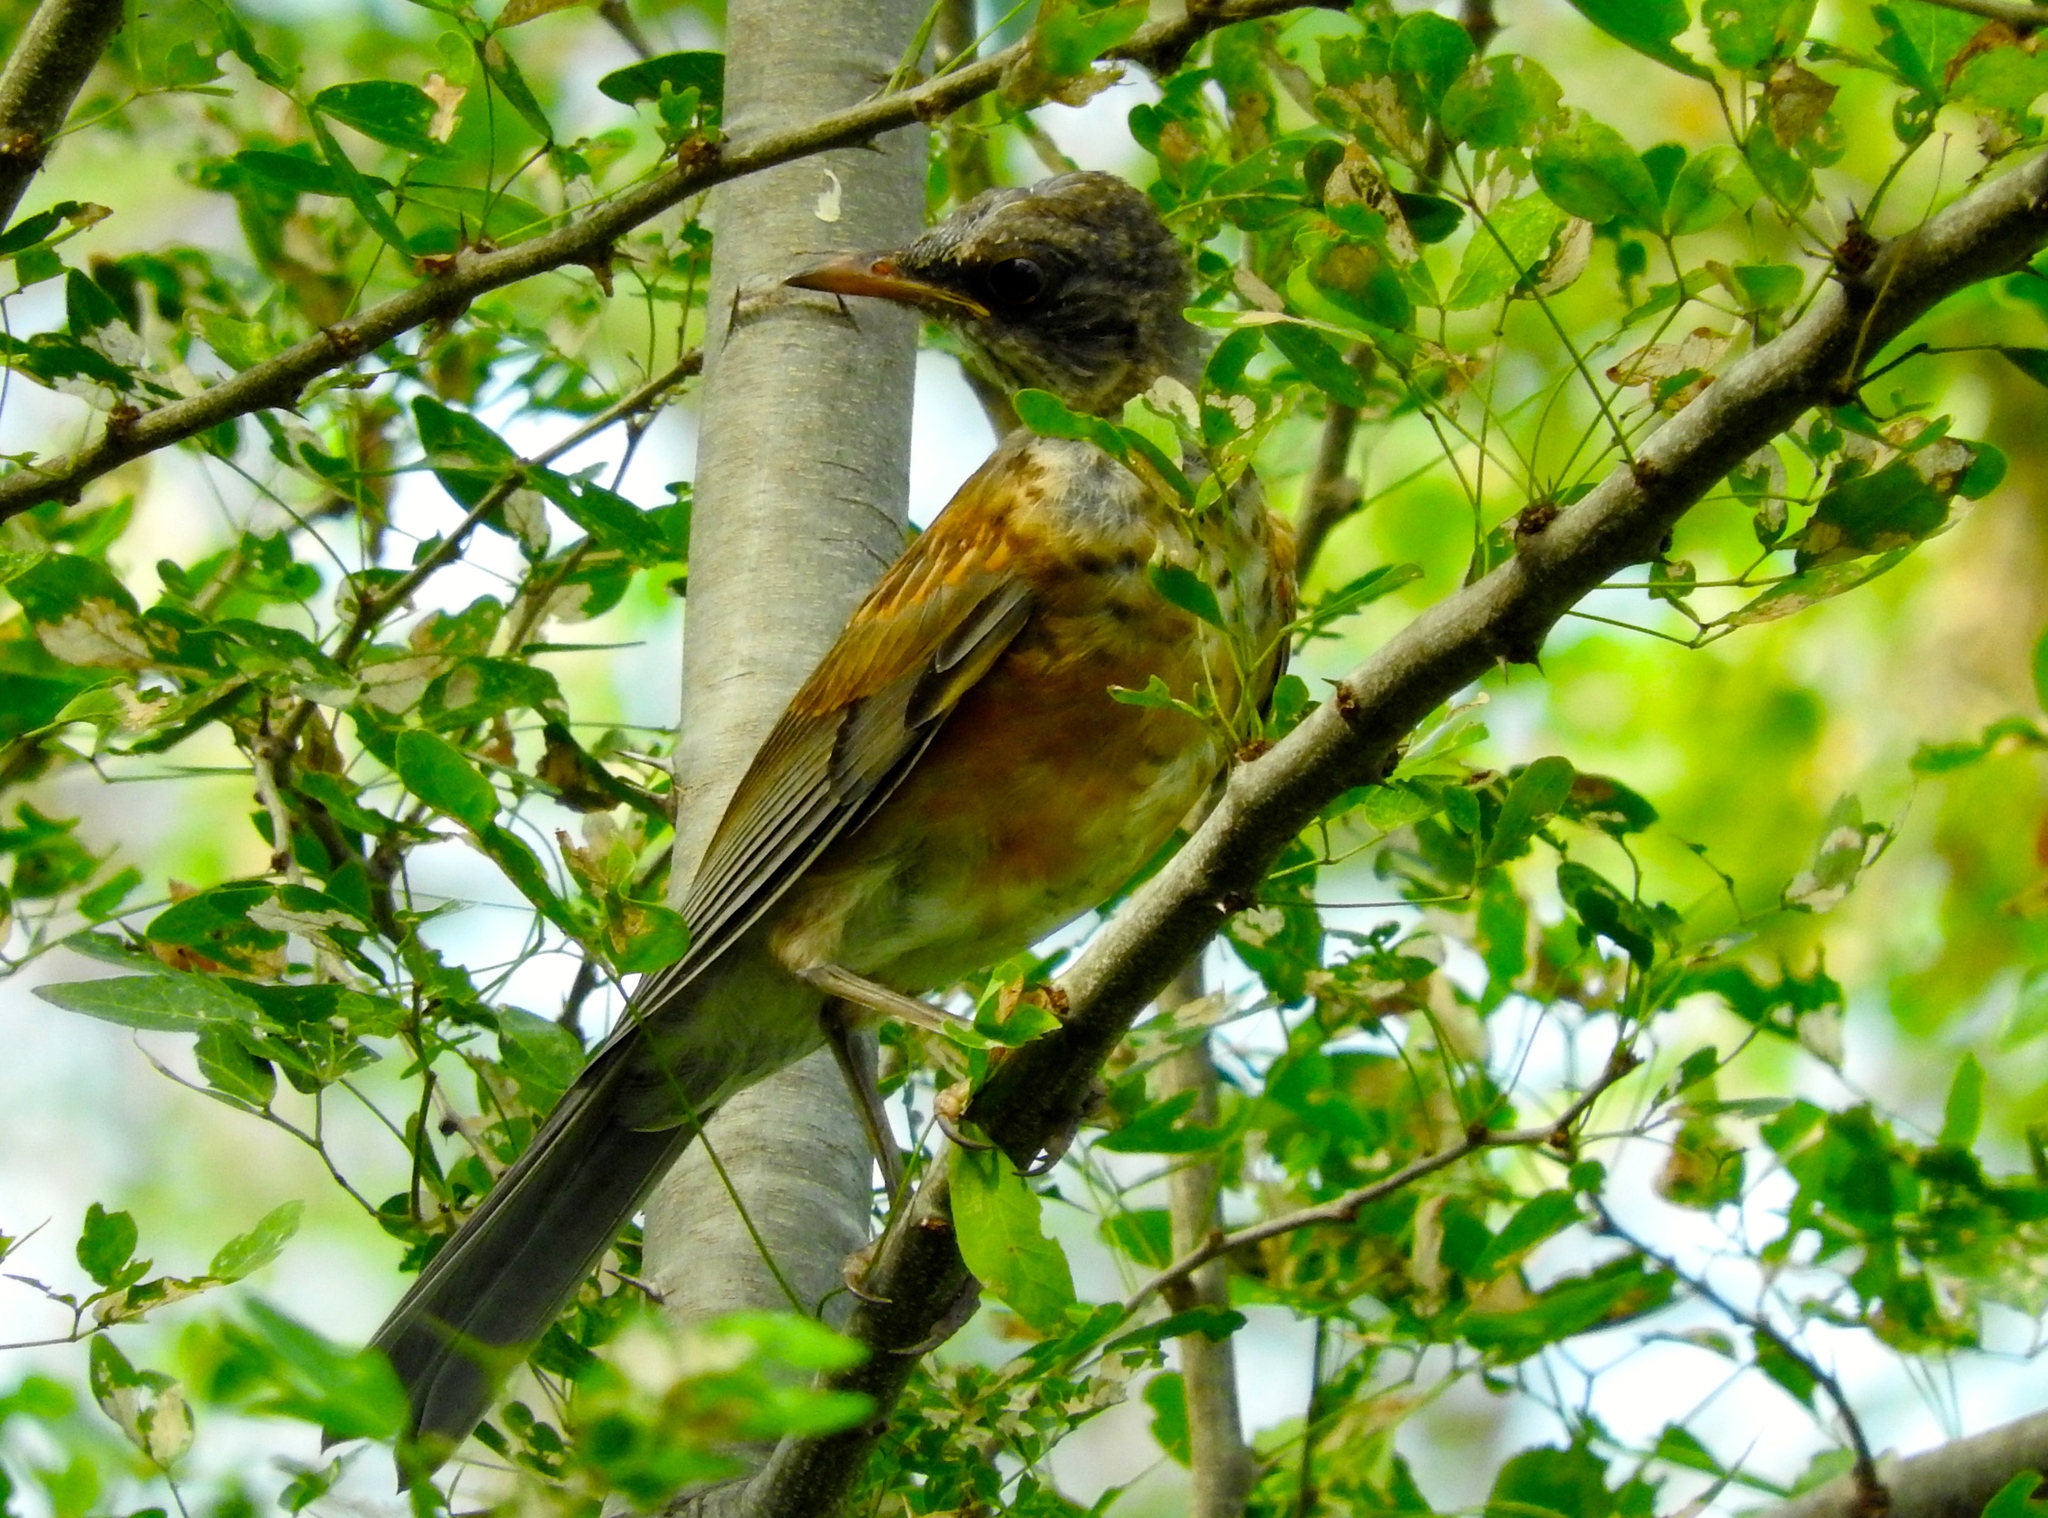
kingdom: Animalia
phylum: Chordata
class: Aves
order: Passeriformes
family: Turdidae
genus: Turdus
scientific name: Turdus rufopalliatus
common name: Rufous-backed robin
